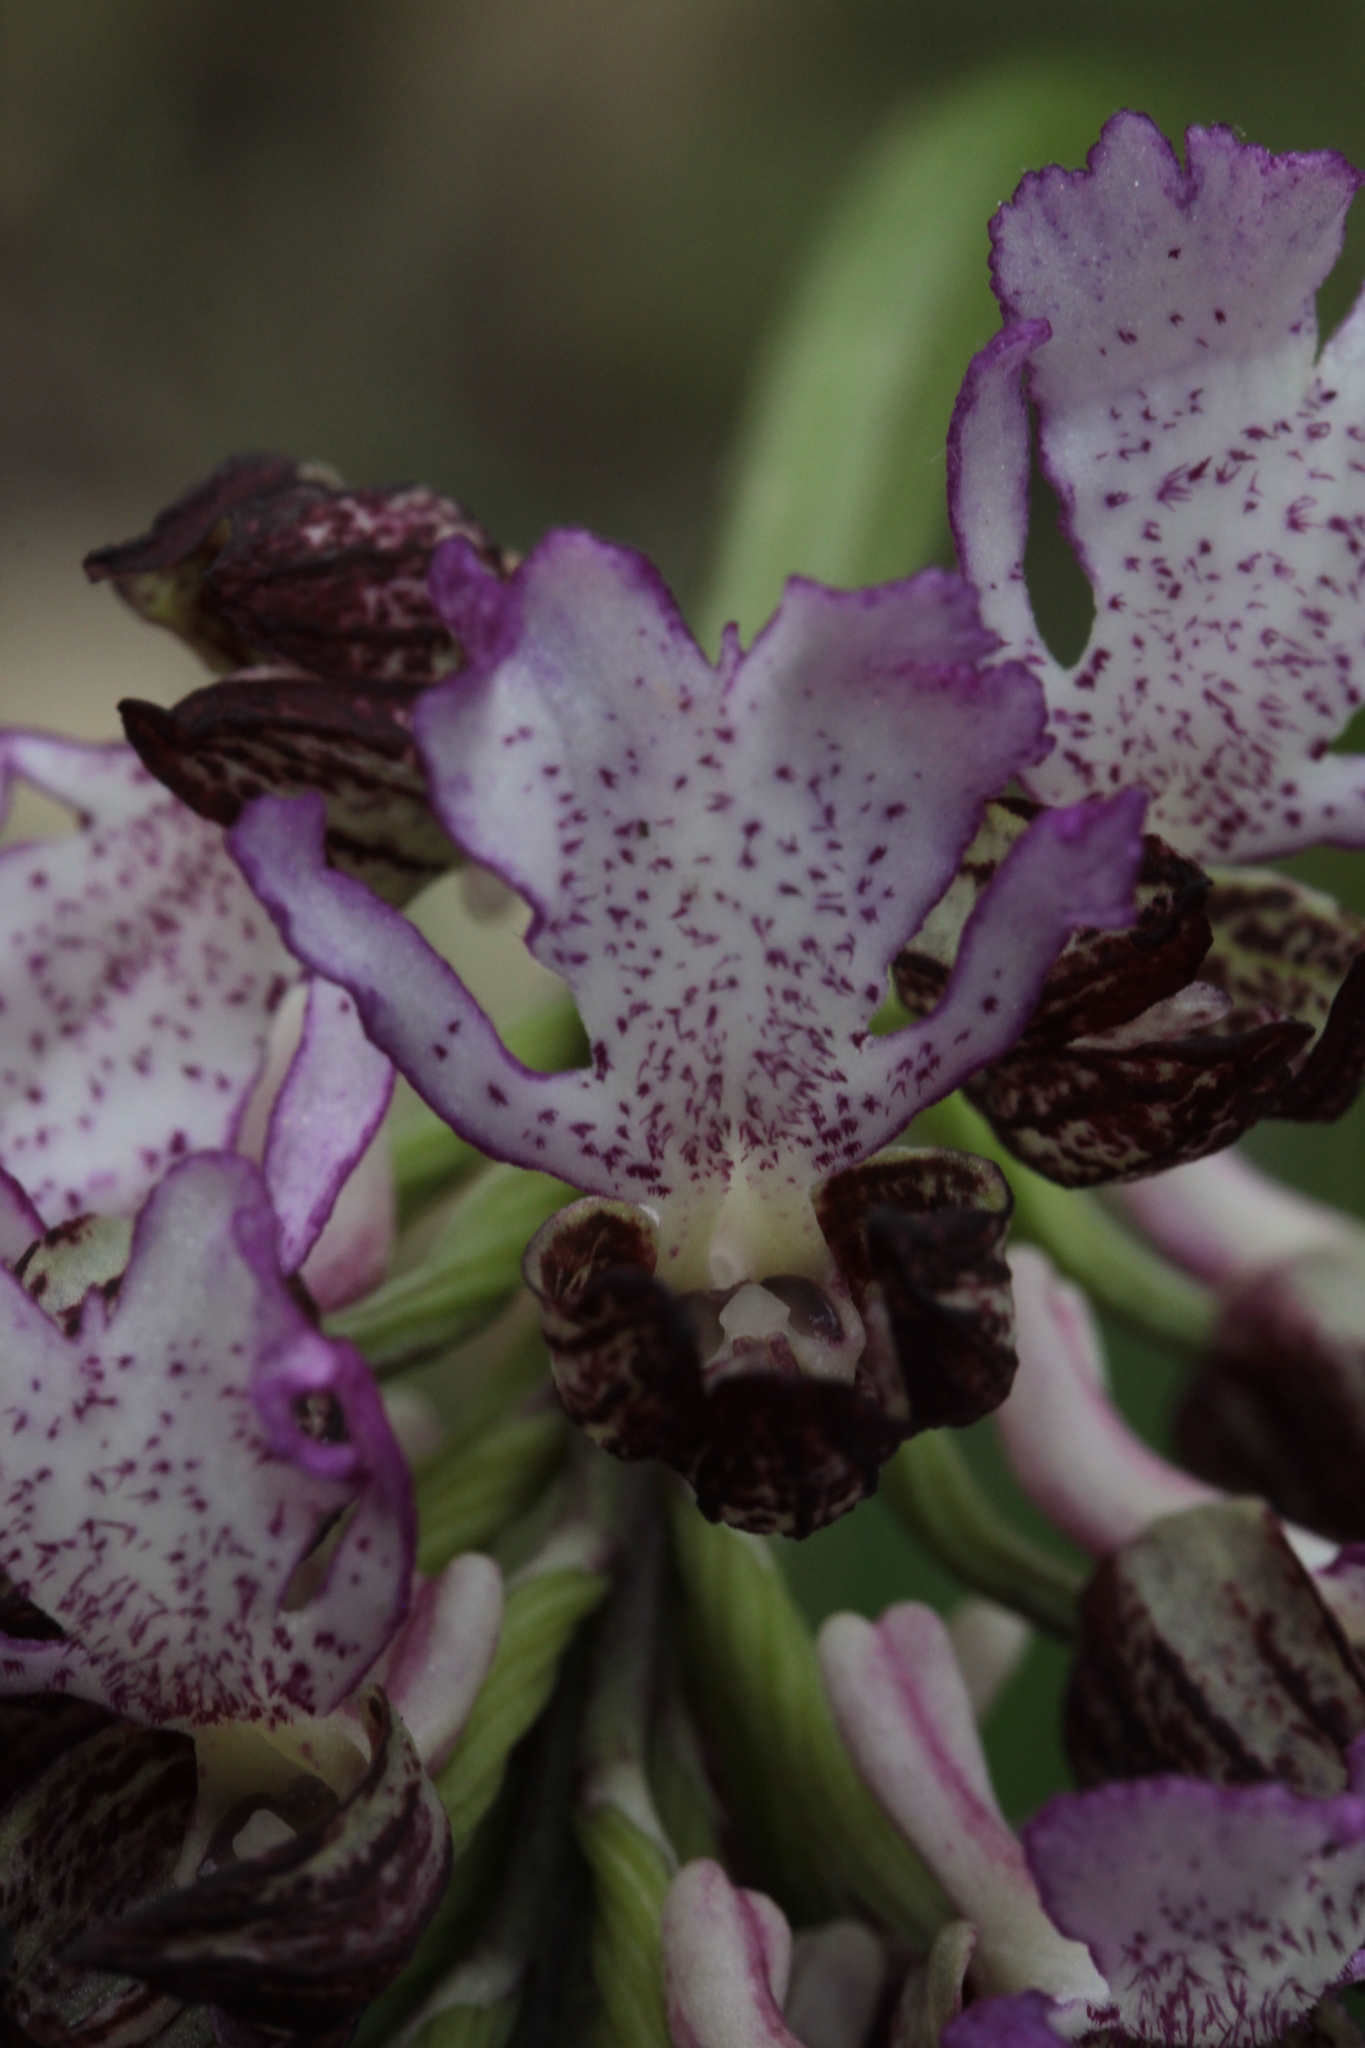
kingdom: Plantae
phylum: Tracheophyta
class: Liliopsida
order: Asparagales
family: Orchidaceae
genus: Orchis
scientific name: Orchis purpurea
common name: Lady orchid
